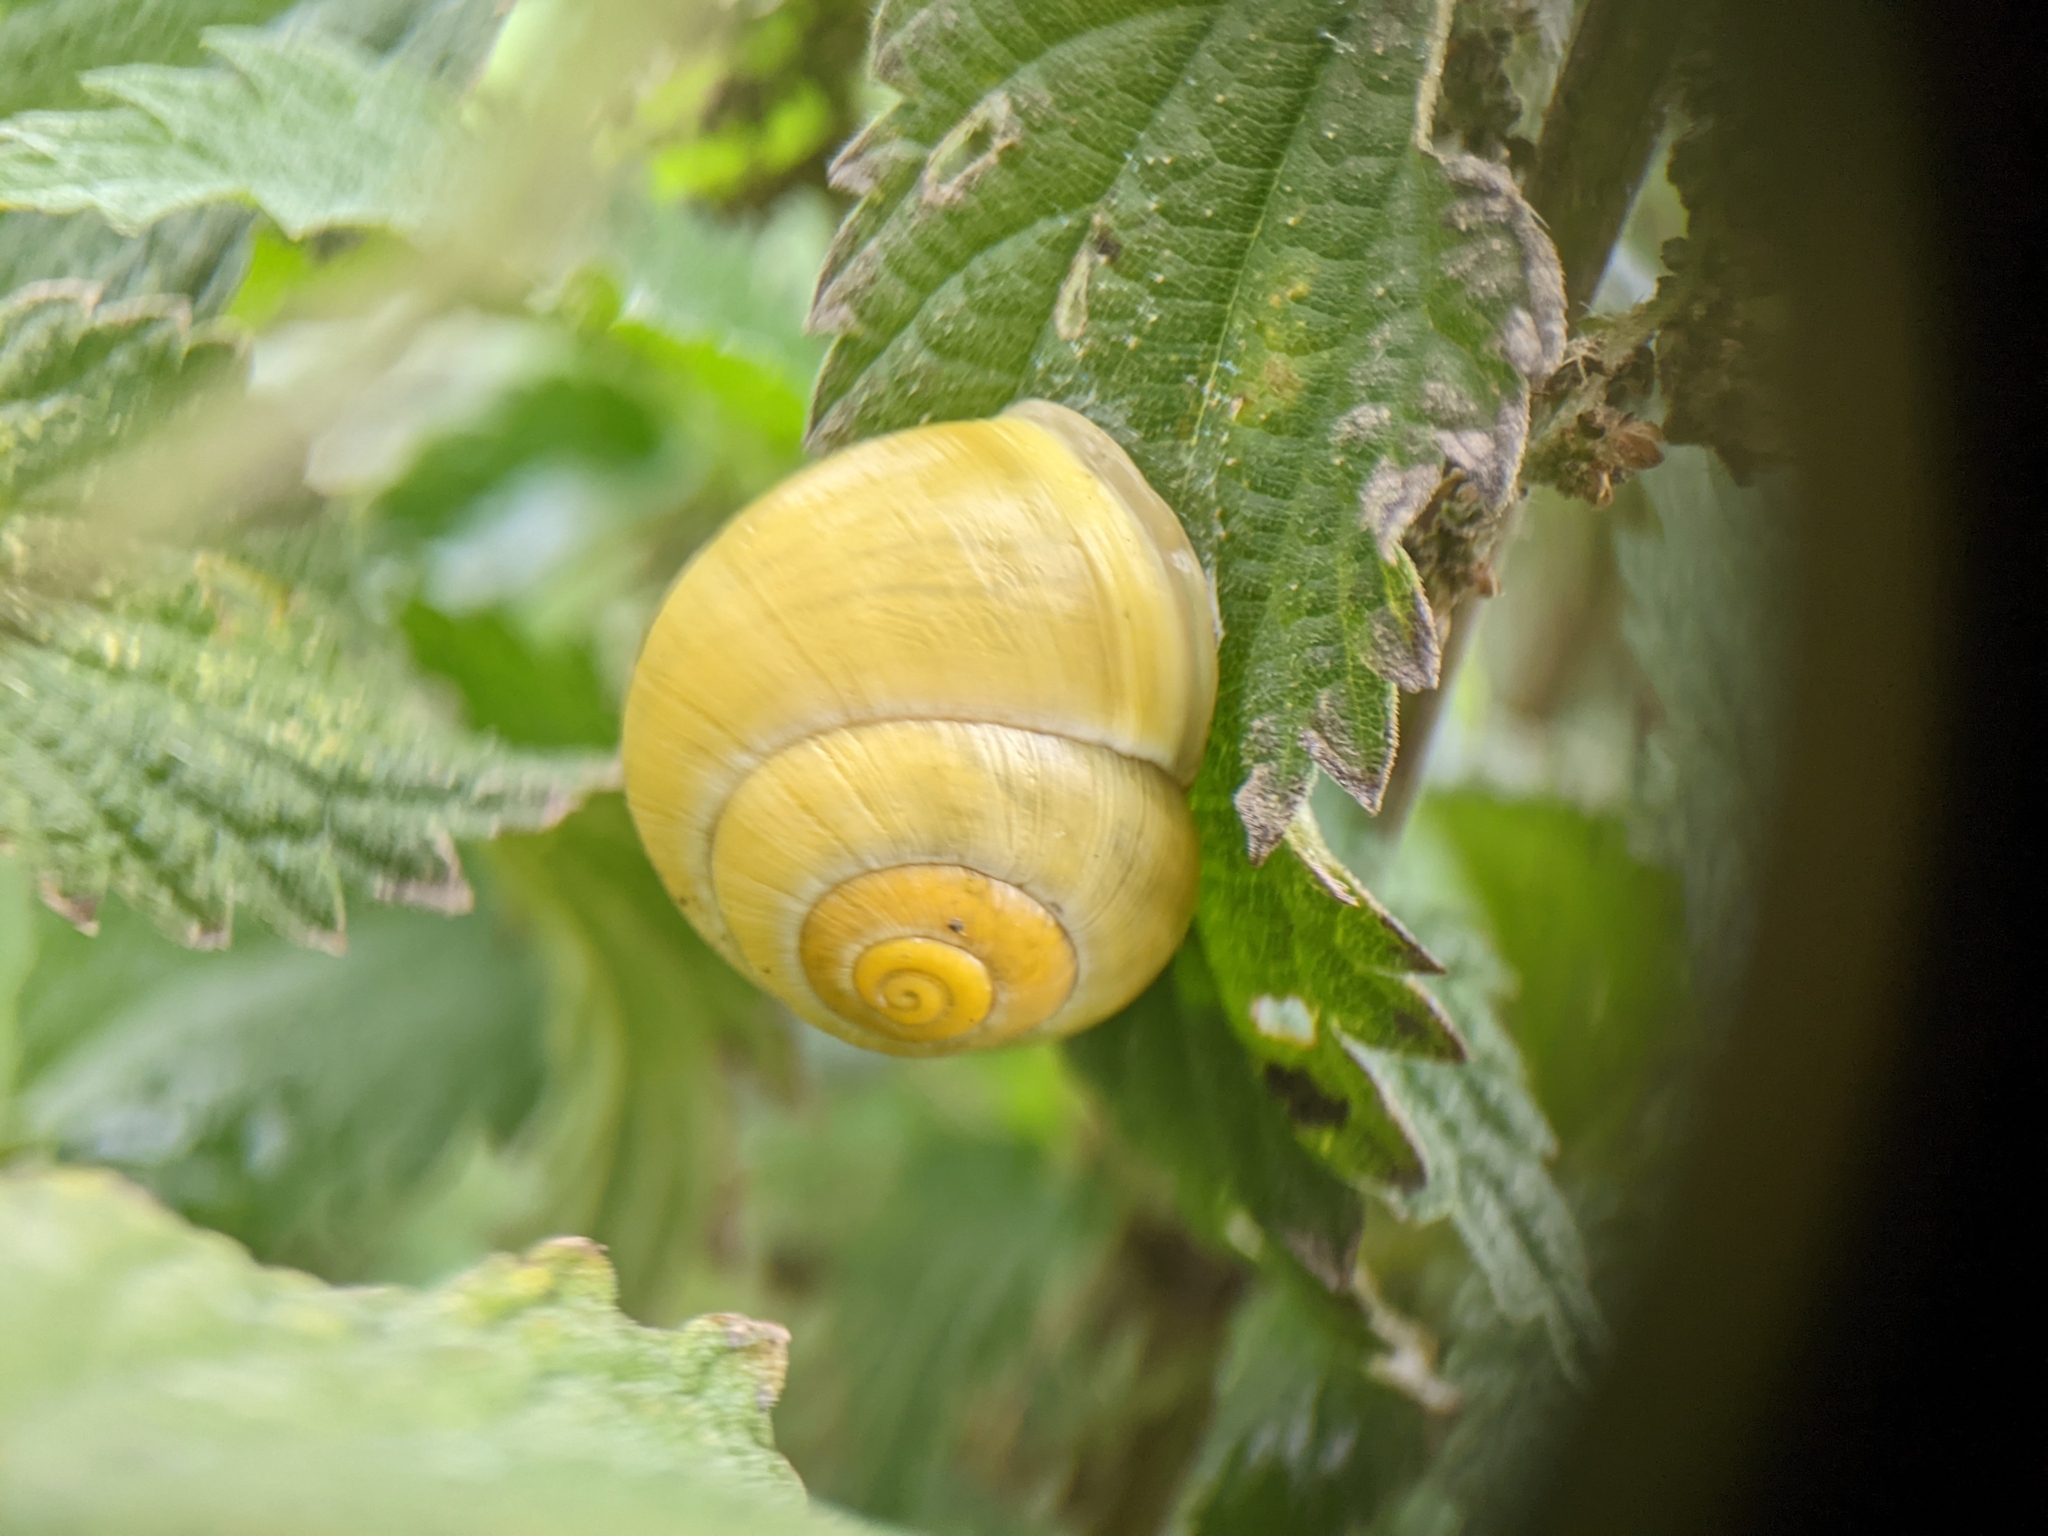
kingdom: Animalia
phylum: Mollusca
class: Gastropoda
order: Stylommatophora
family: Helicidae
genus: Cepaea
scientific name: Cepaea hortensis
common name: White-lip gardensnail
